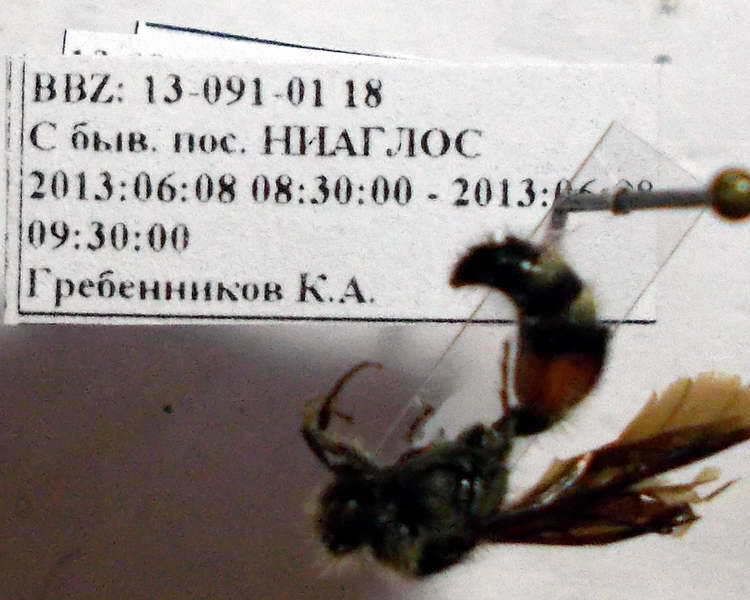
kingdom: Animalia
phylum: Arthropoda
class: Insecta
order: Hymenoptera
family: Mutillidae
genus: Nemka
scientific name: Nemka viduata
